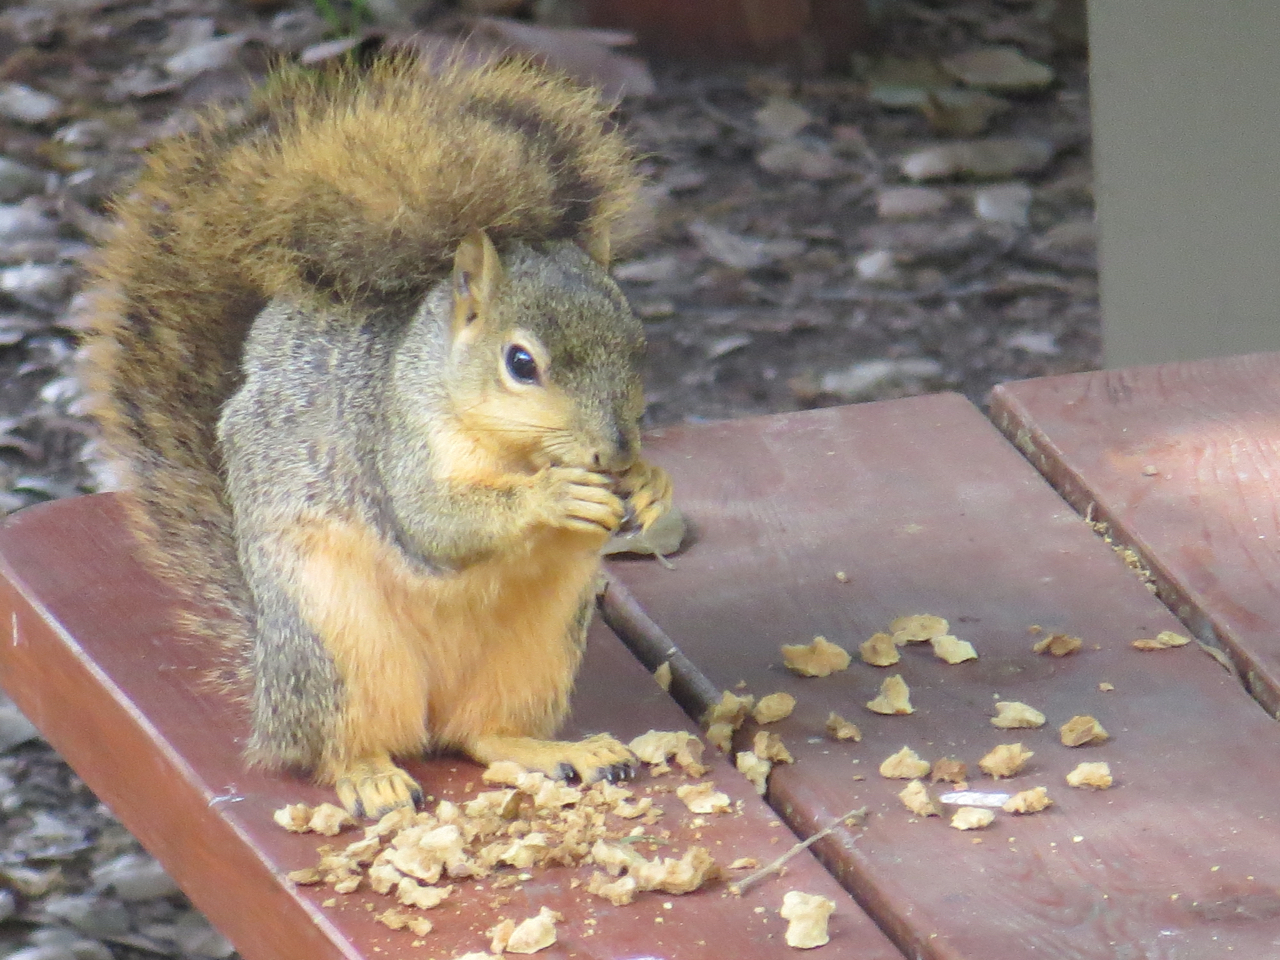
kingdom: Animalia
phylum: Chordata
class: Mammalia
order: Rodentia
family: Sciuridae
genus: Sciurus
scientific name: Sciurus niger
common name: Fox squirrel
